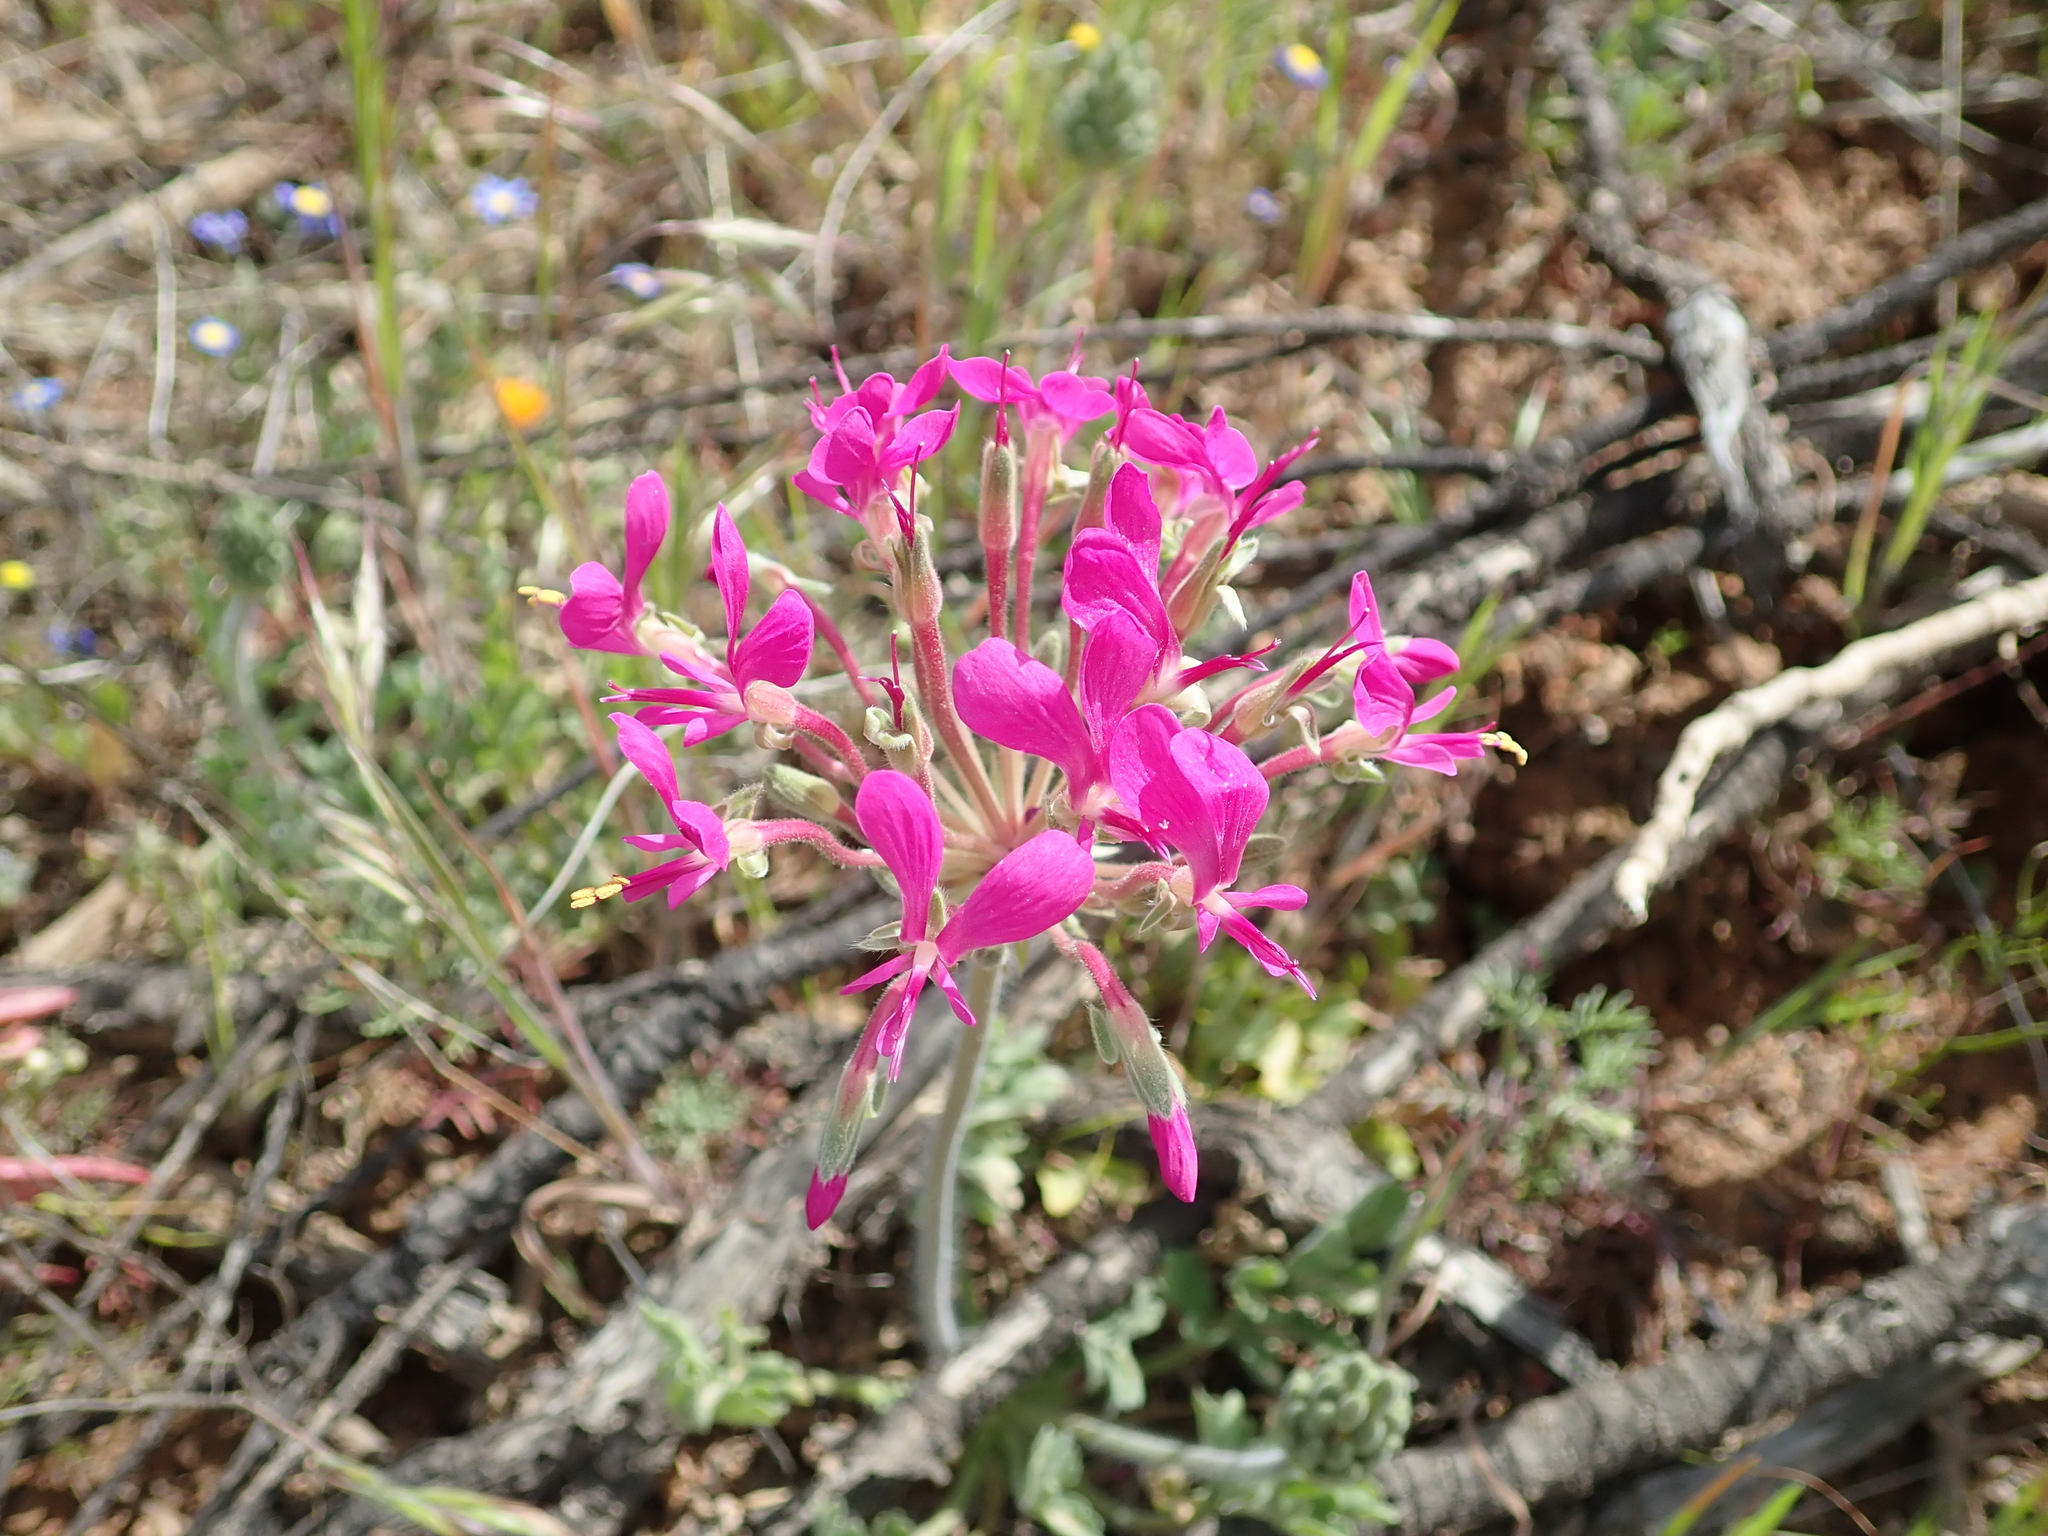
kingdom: Plantae
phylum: Tracheophyta
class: Magnoliopsida
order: Geraniales
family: Geraniaceae
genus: Pelargonium
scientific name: Pelargonium incrassatum
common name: Namaqualand beauty
